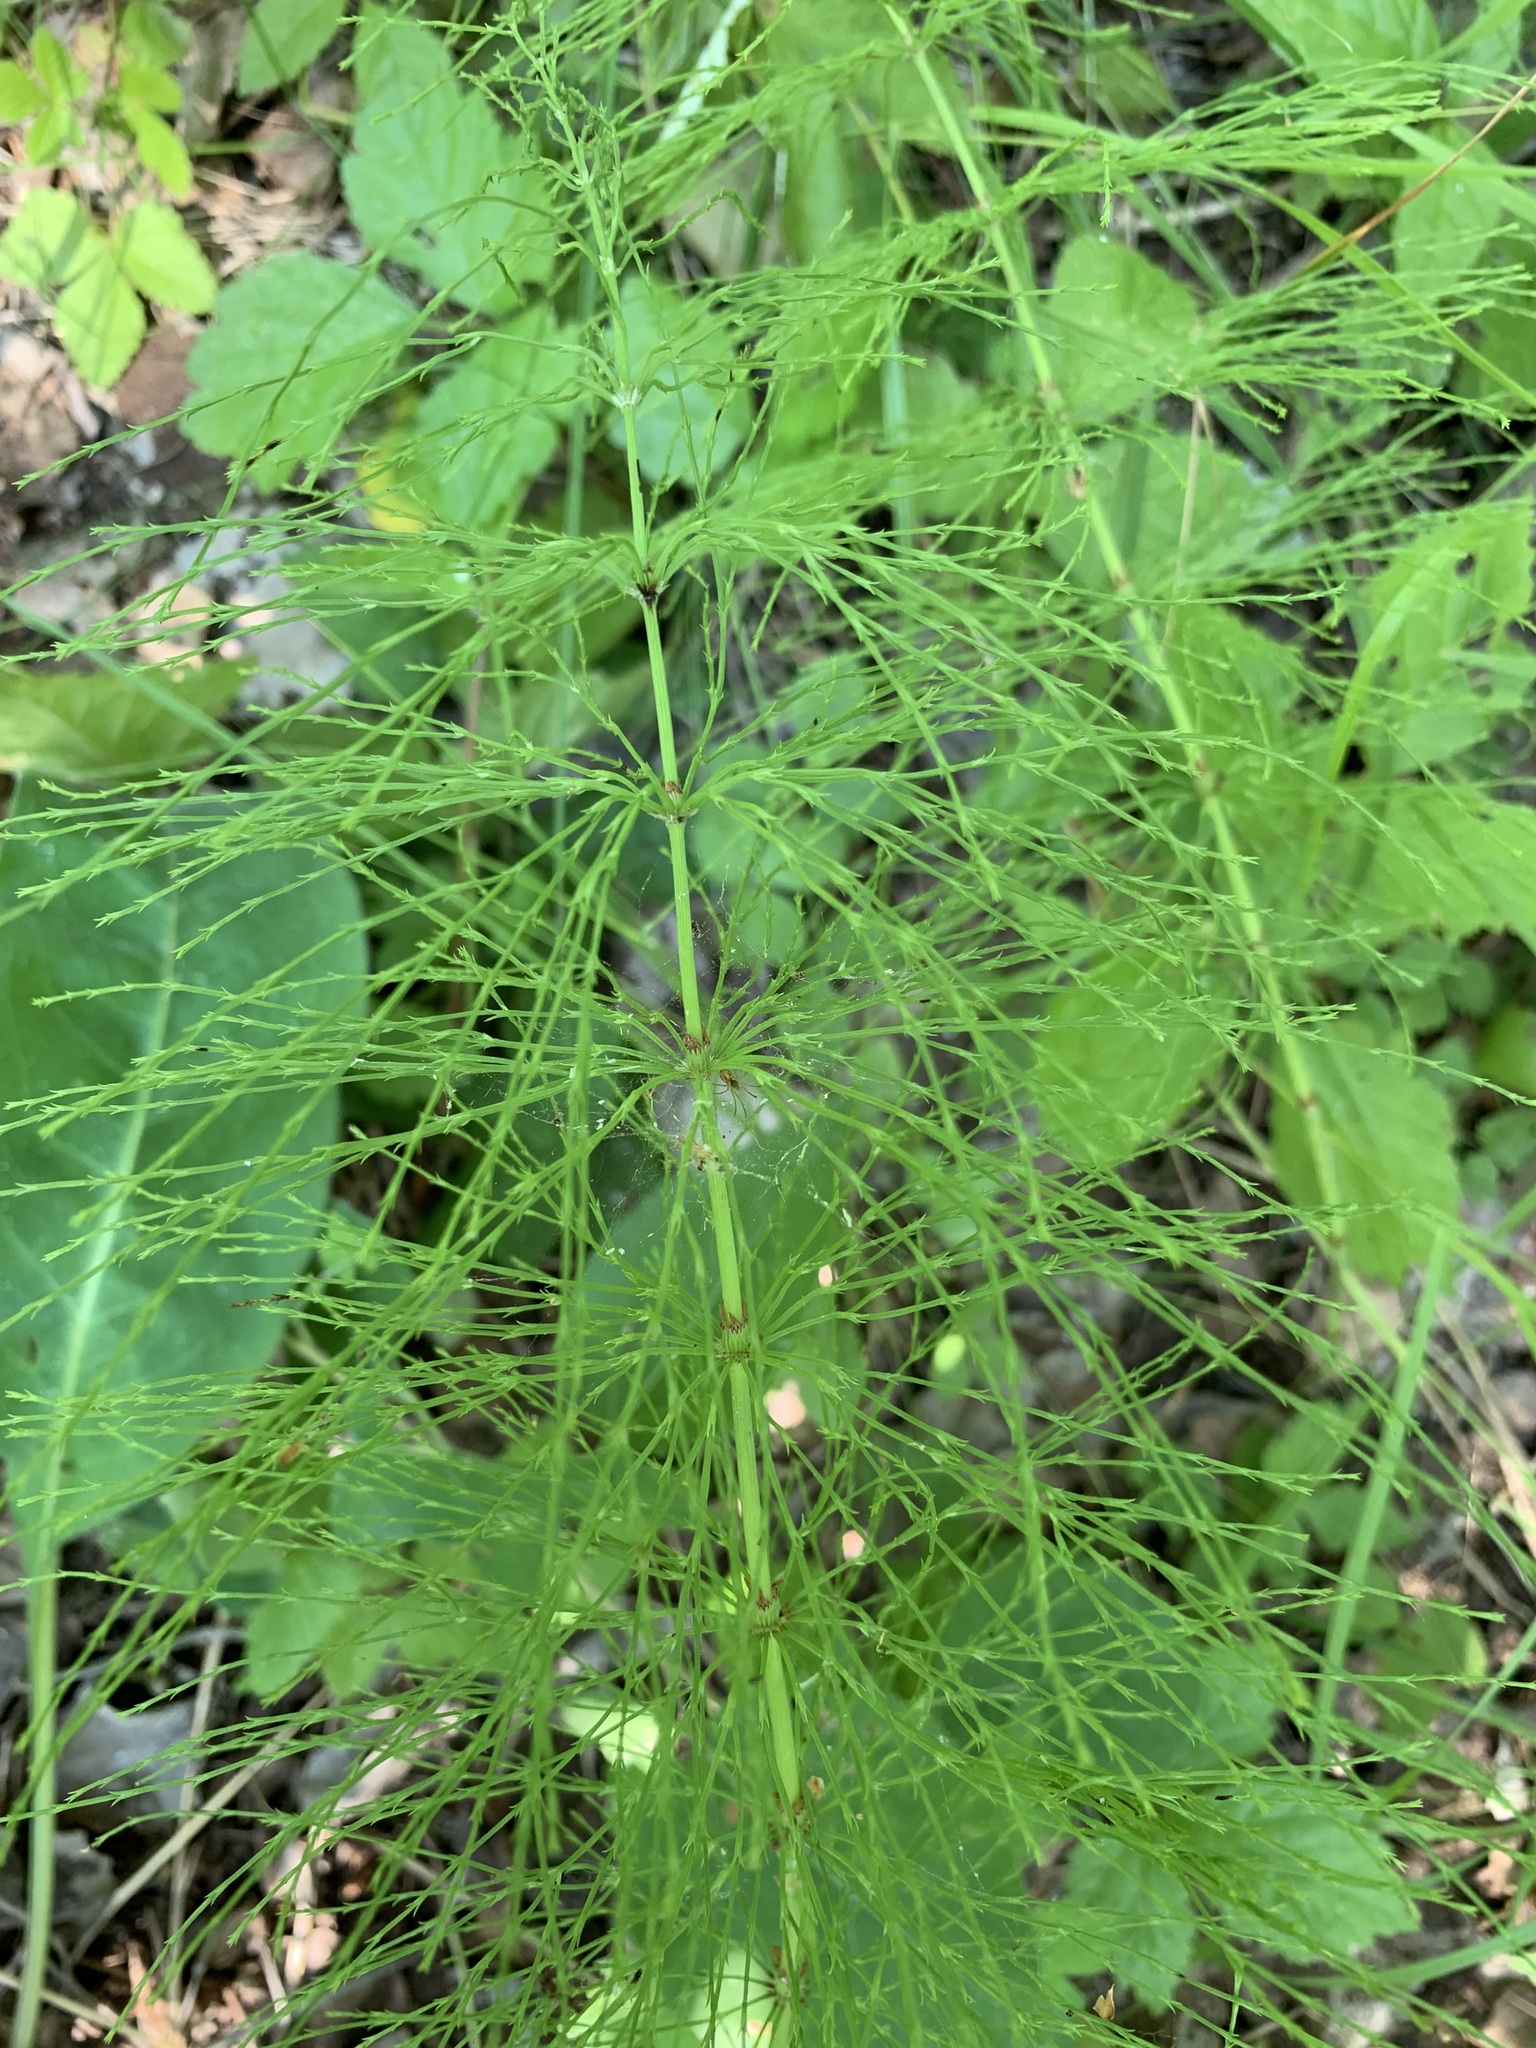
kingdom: Plantae
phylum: Tracheophyta
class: Polypodiopsida
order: Equisetales
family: Equisetaceae
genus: Equisetum
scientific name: Equisetum sylvaticum
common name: Wood horsetail
